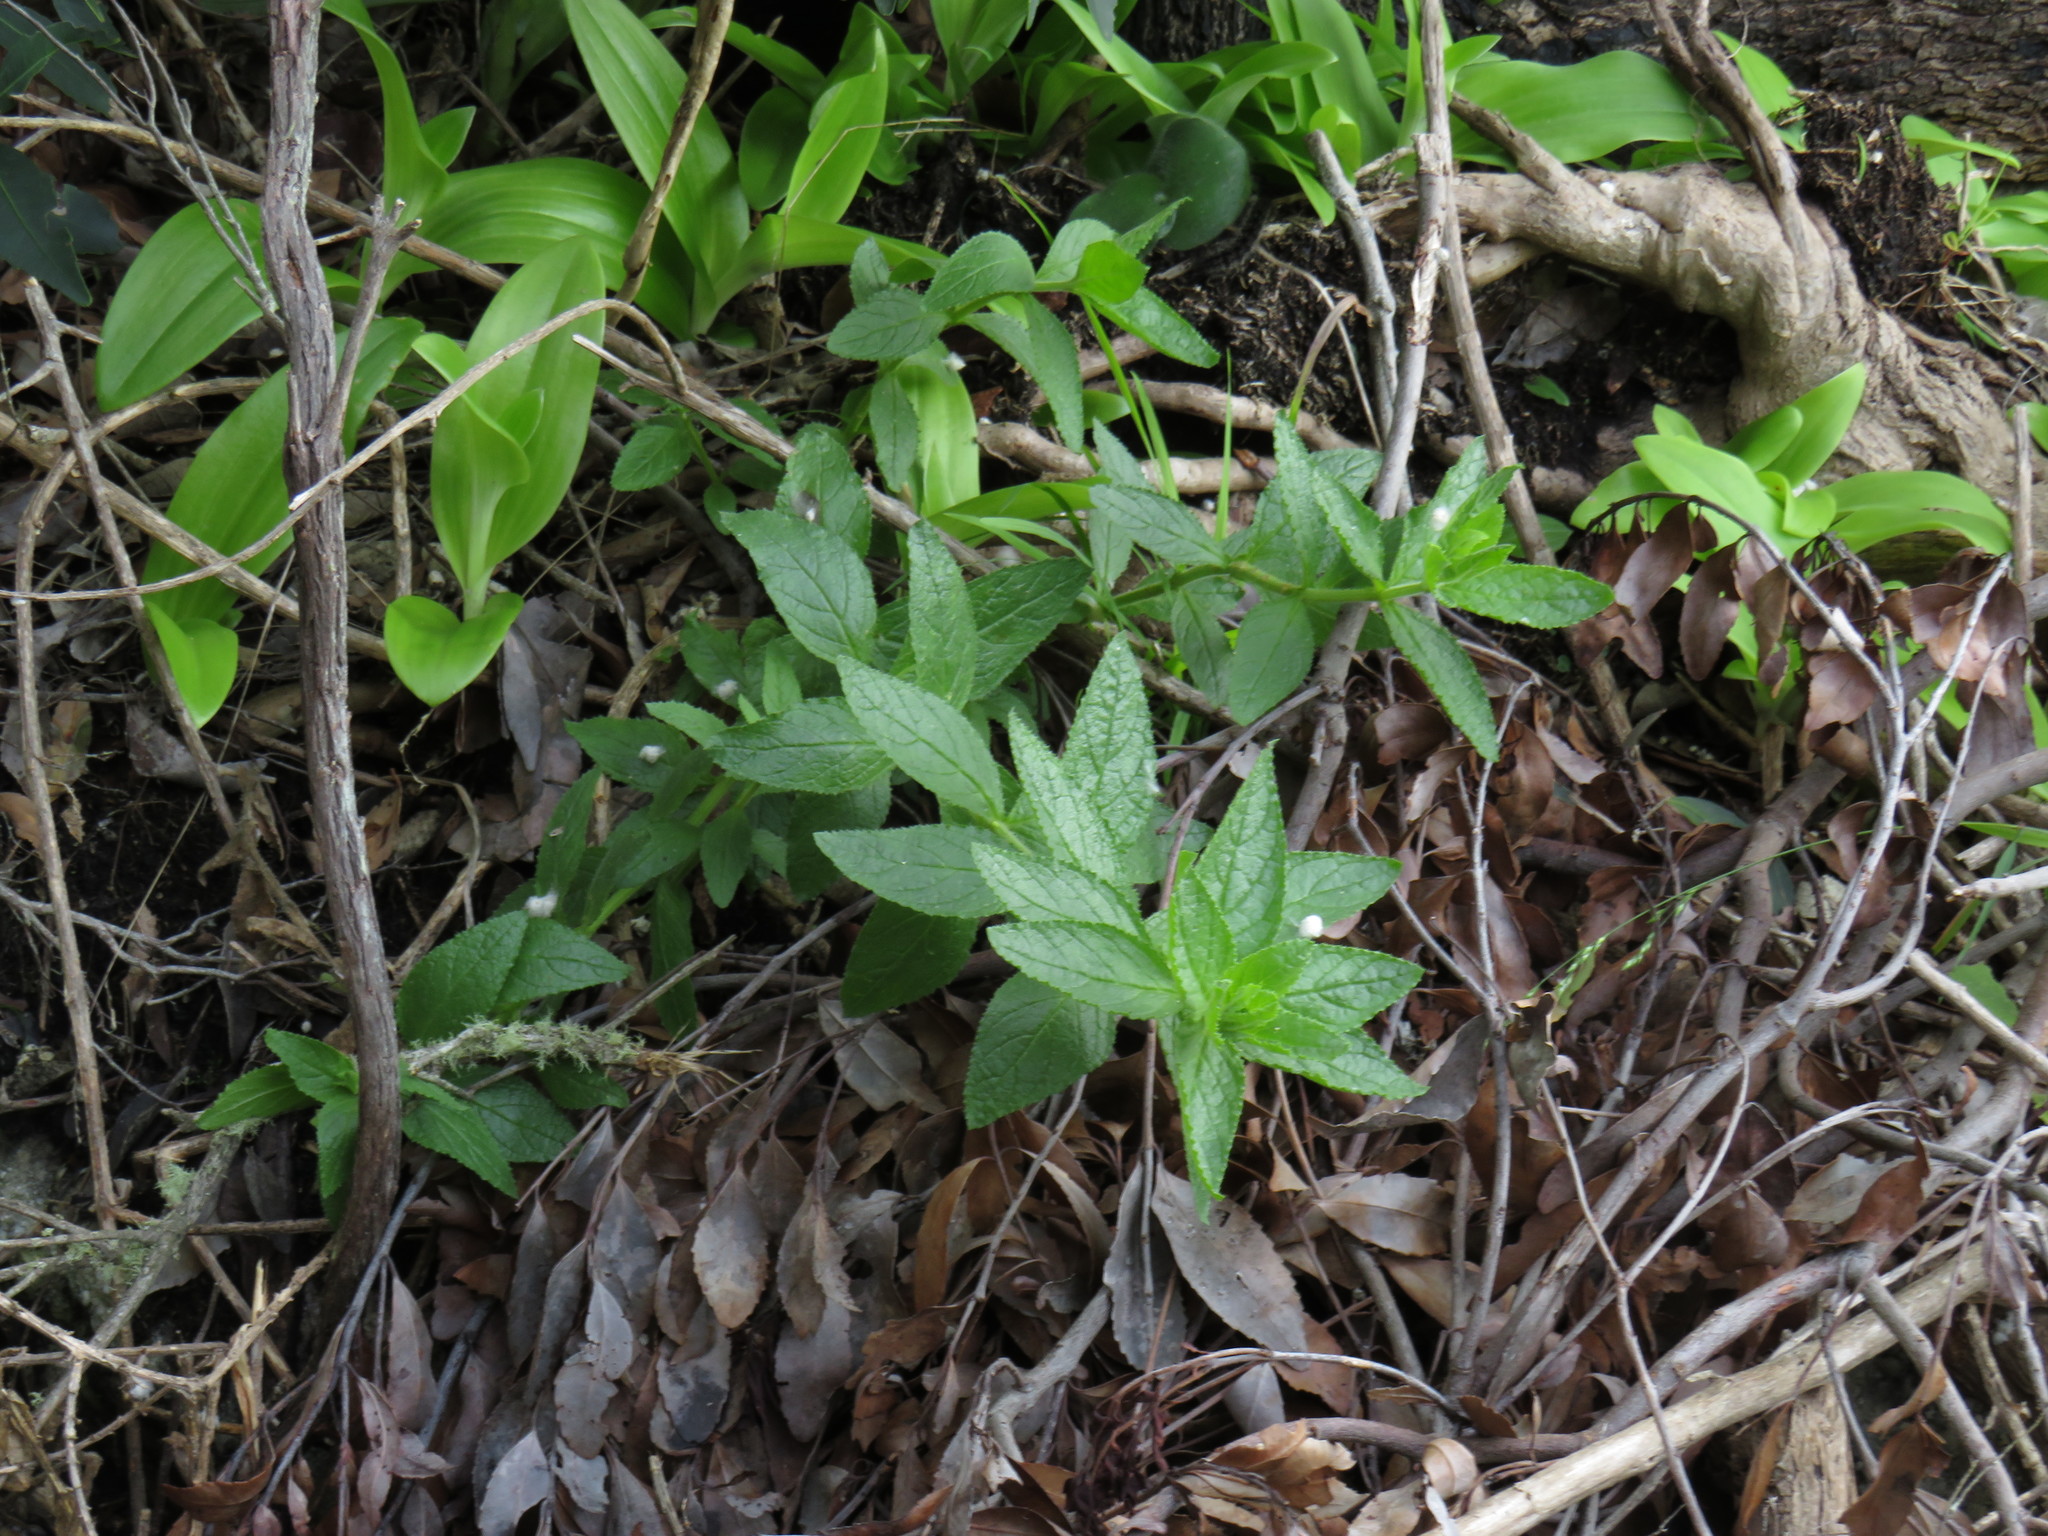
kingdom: Plantae
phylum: Tracheophyta
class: Liliopsida
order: Asparagales
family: Orchidaceae
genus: Satyrium
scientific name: Satyrium odorum
